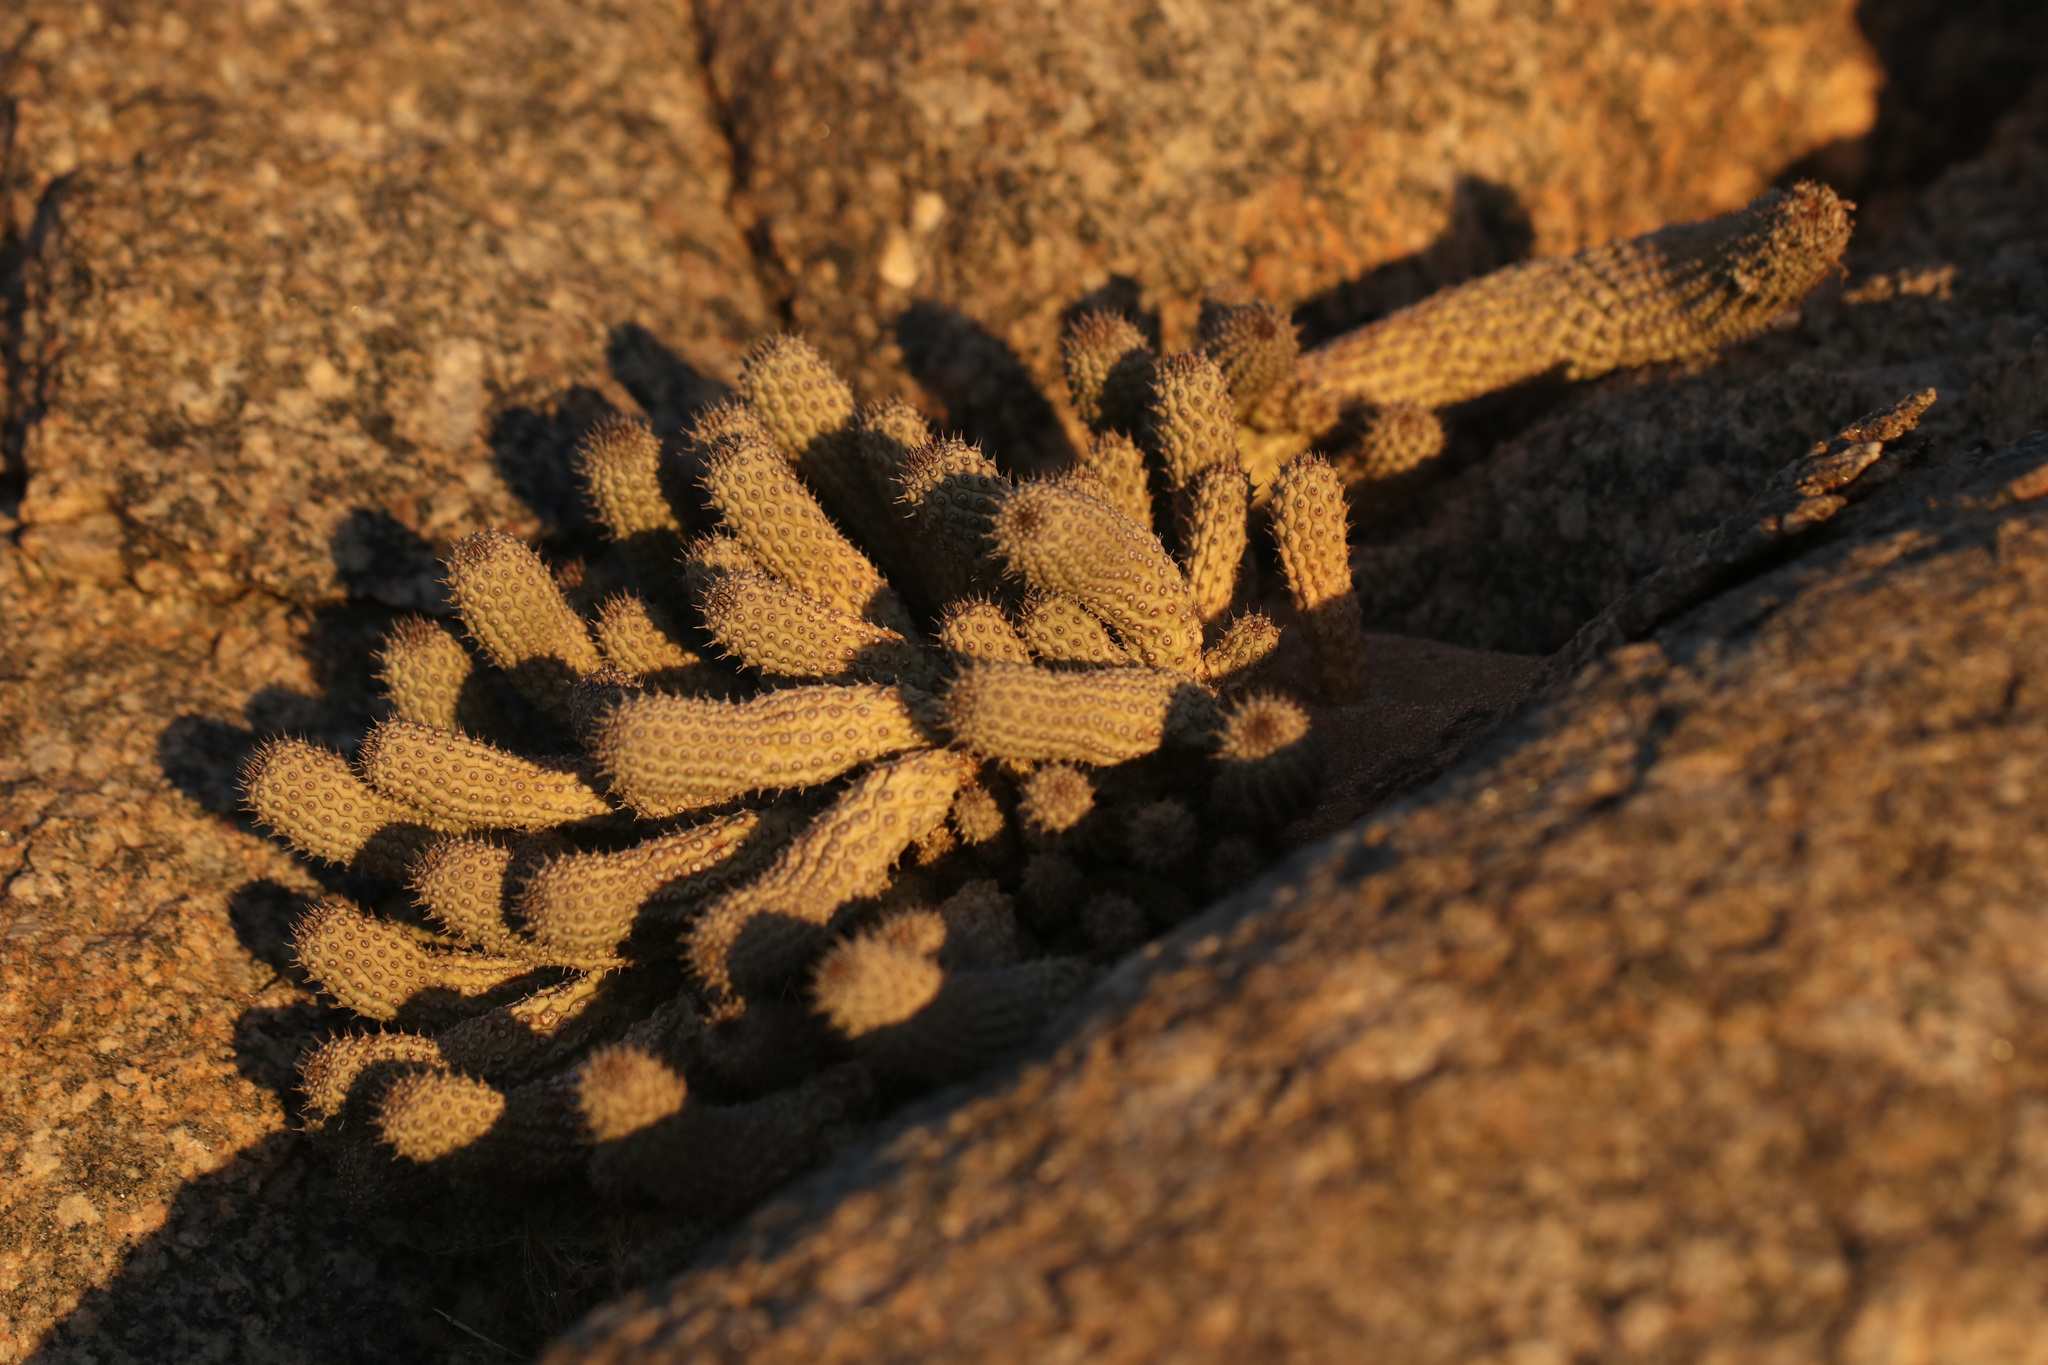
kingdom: Plantae
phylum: Tracheophyta
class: Magnoliopsida
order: Gentianales
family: Apocynaceae
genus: Ceropegia
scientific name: Ceropegia pedicellata
